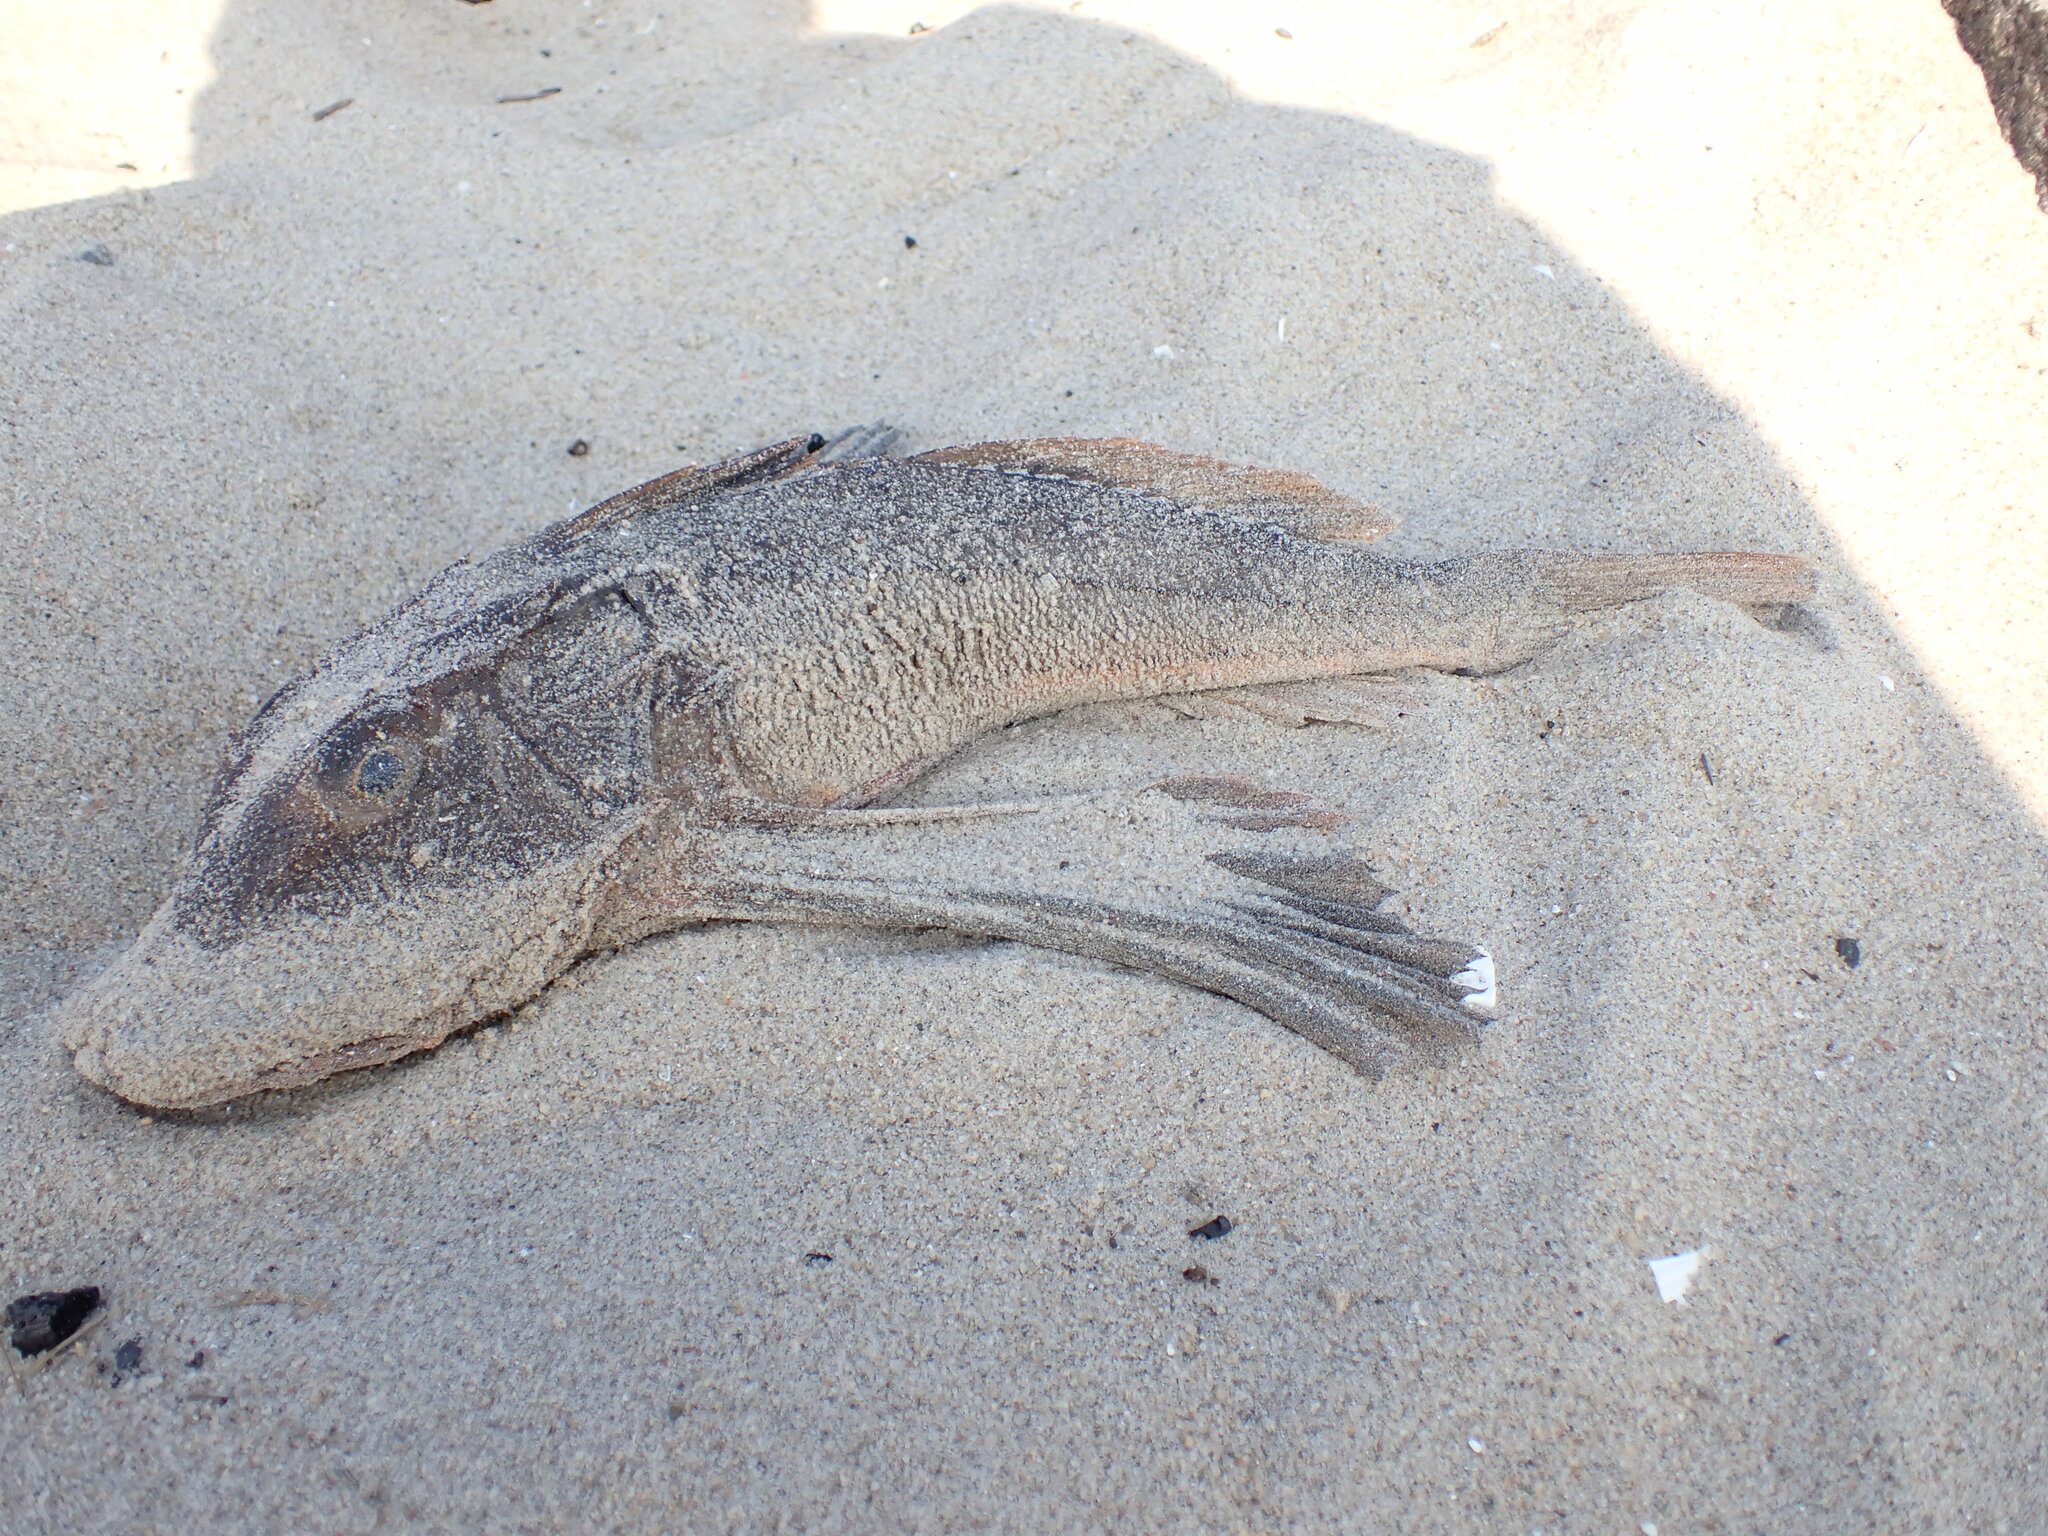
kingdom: Animalia
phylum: Chordata
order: Scorpaeniformes
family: Triglidae
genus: Prionotus
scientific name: Prionotus evolans
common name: Striped searobin
